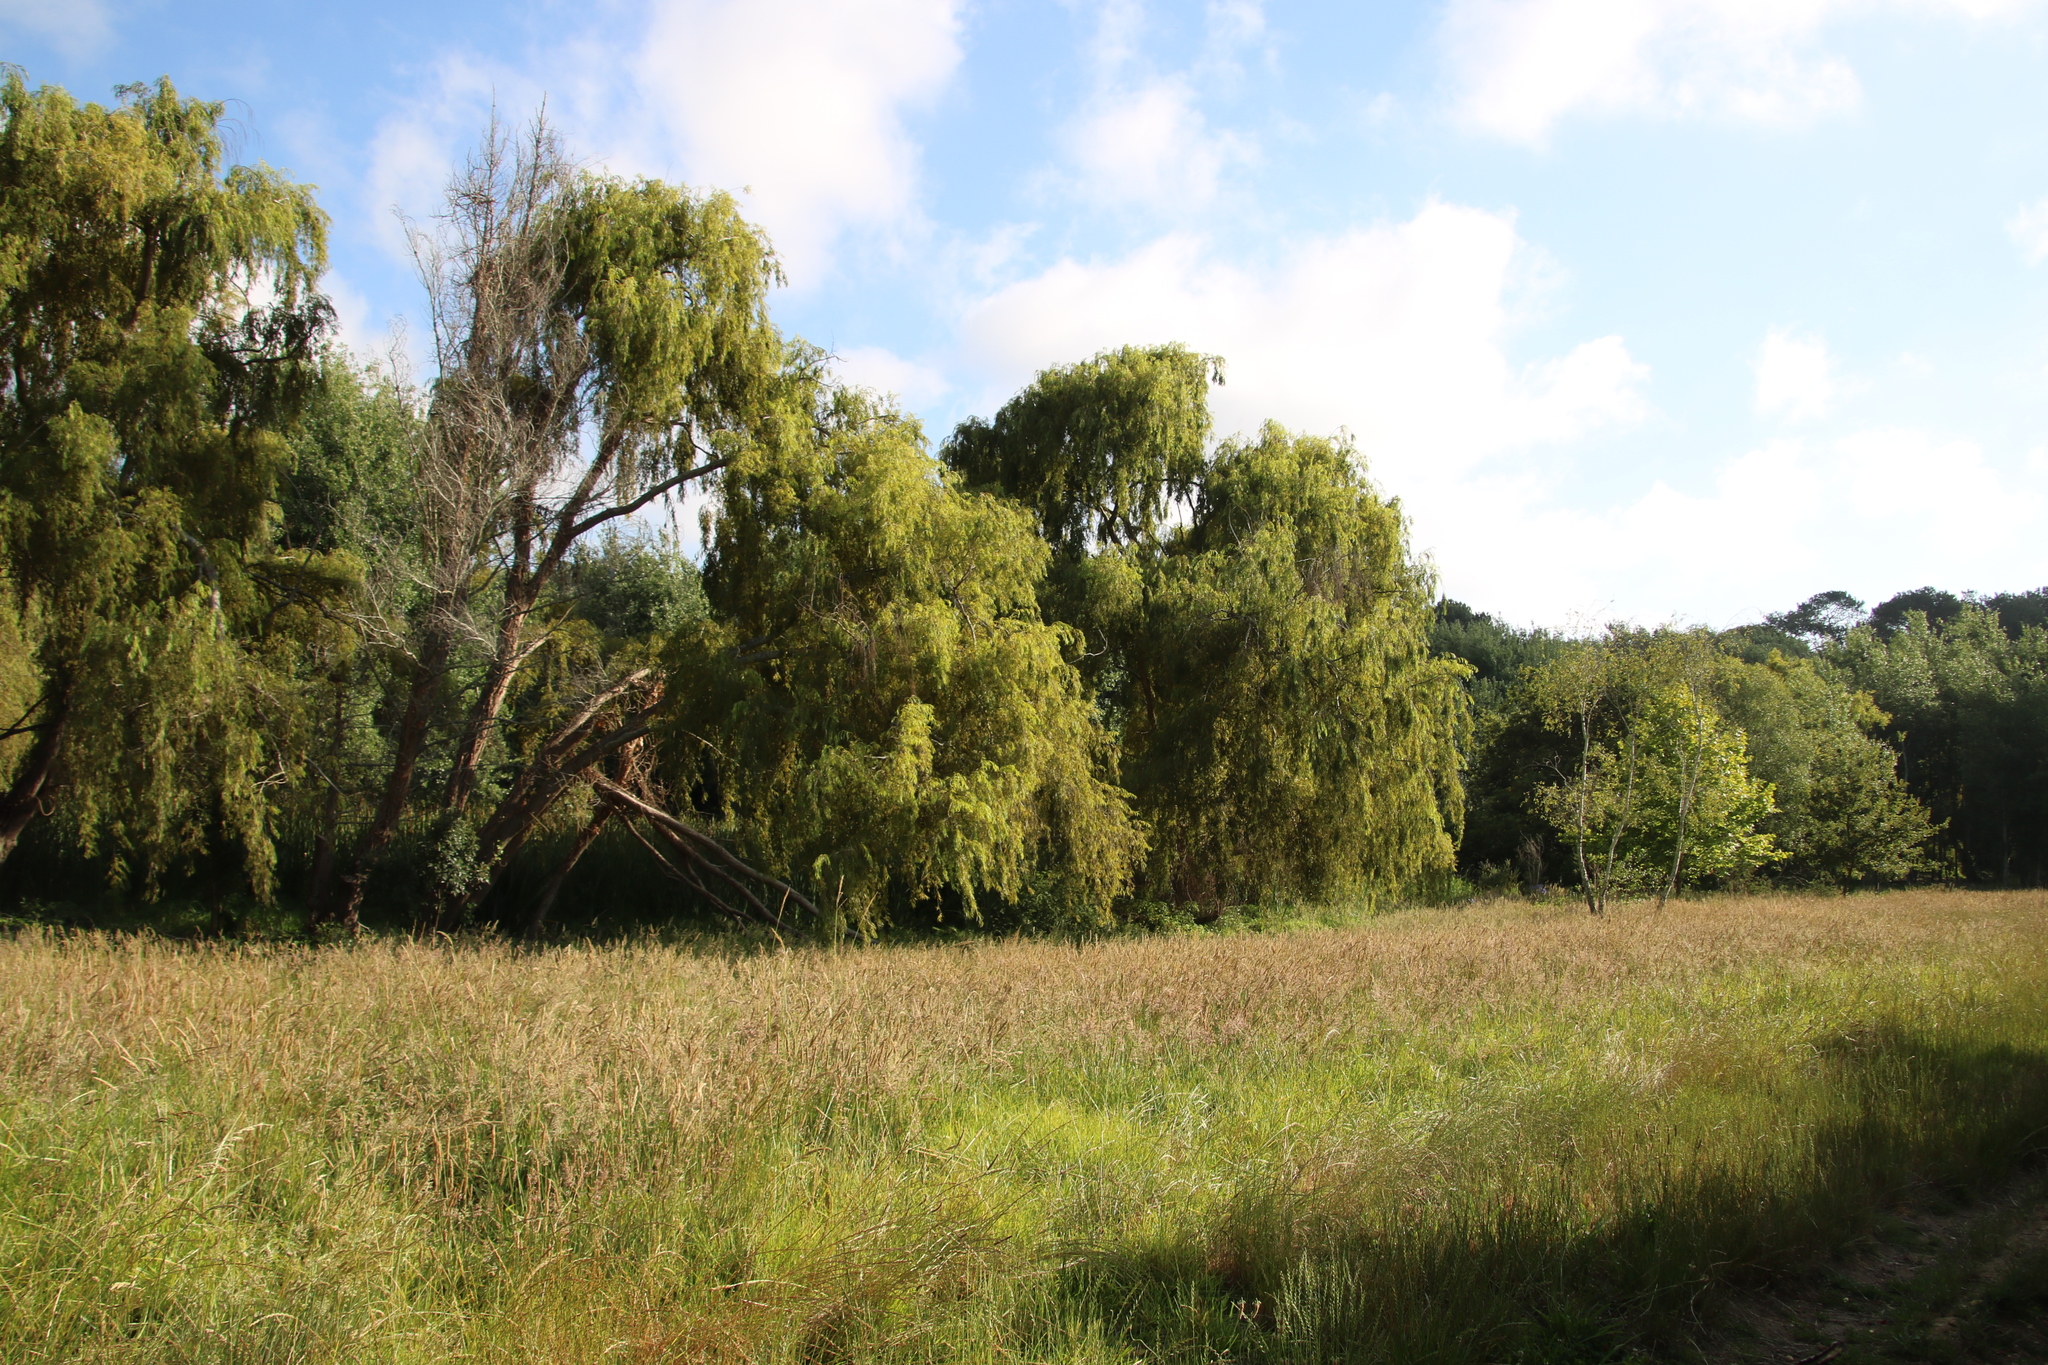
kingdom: Plantae
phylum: Tracheophyta
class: Magnoliopsida
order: Malpighiales
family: Salicaceae
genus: Salix
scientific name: Salix babylonica
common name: Weeping willow
